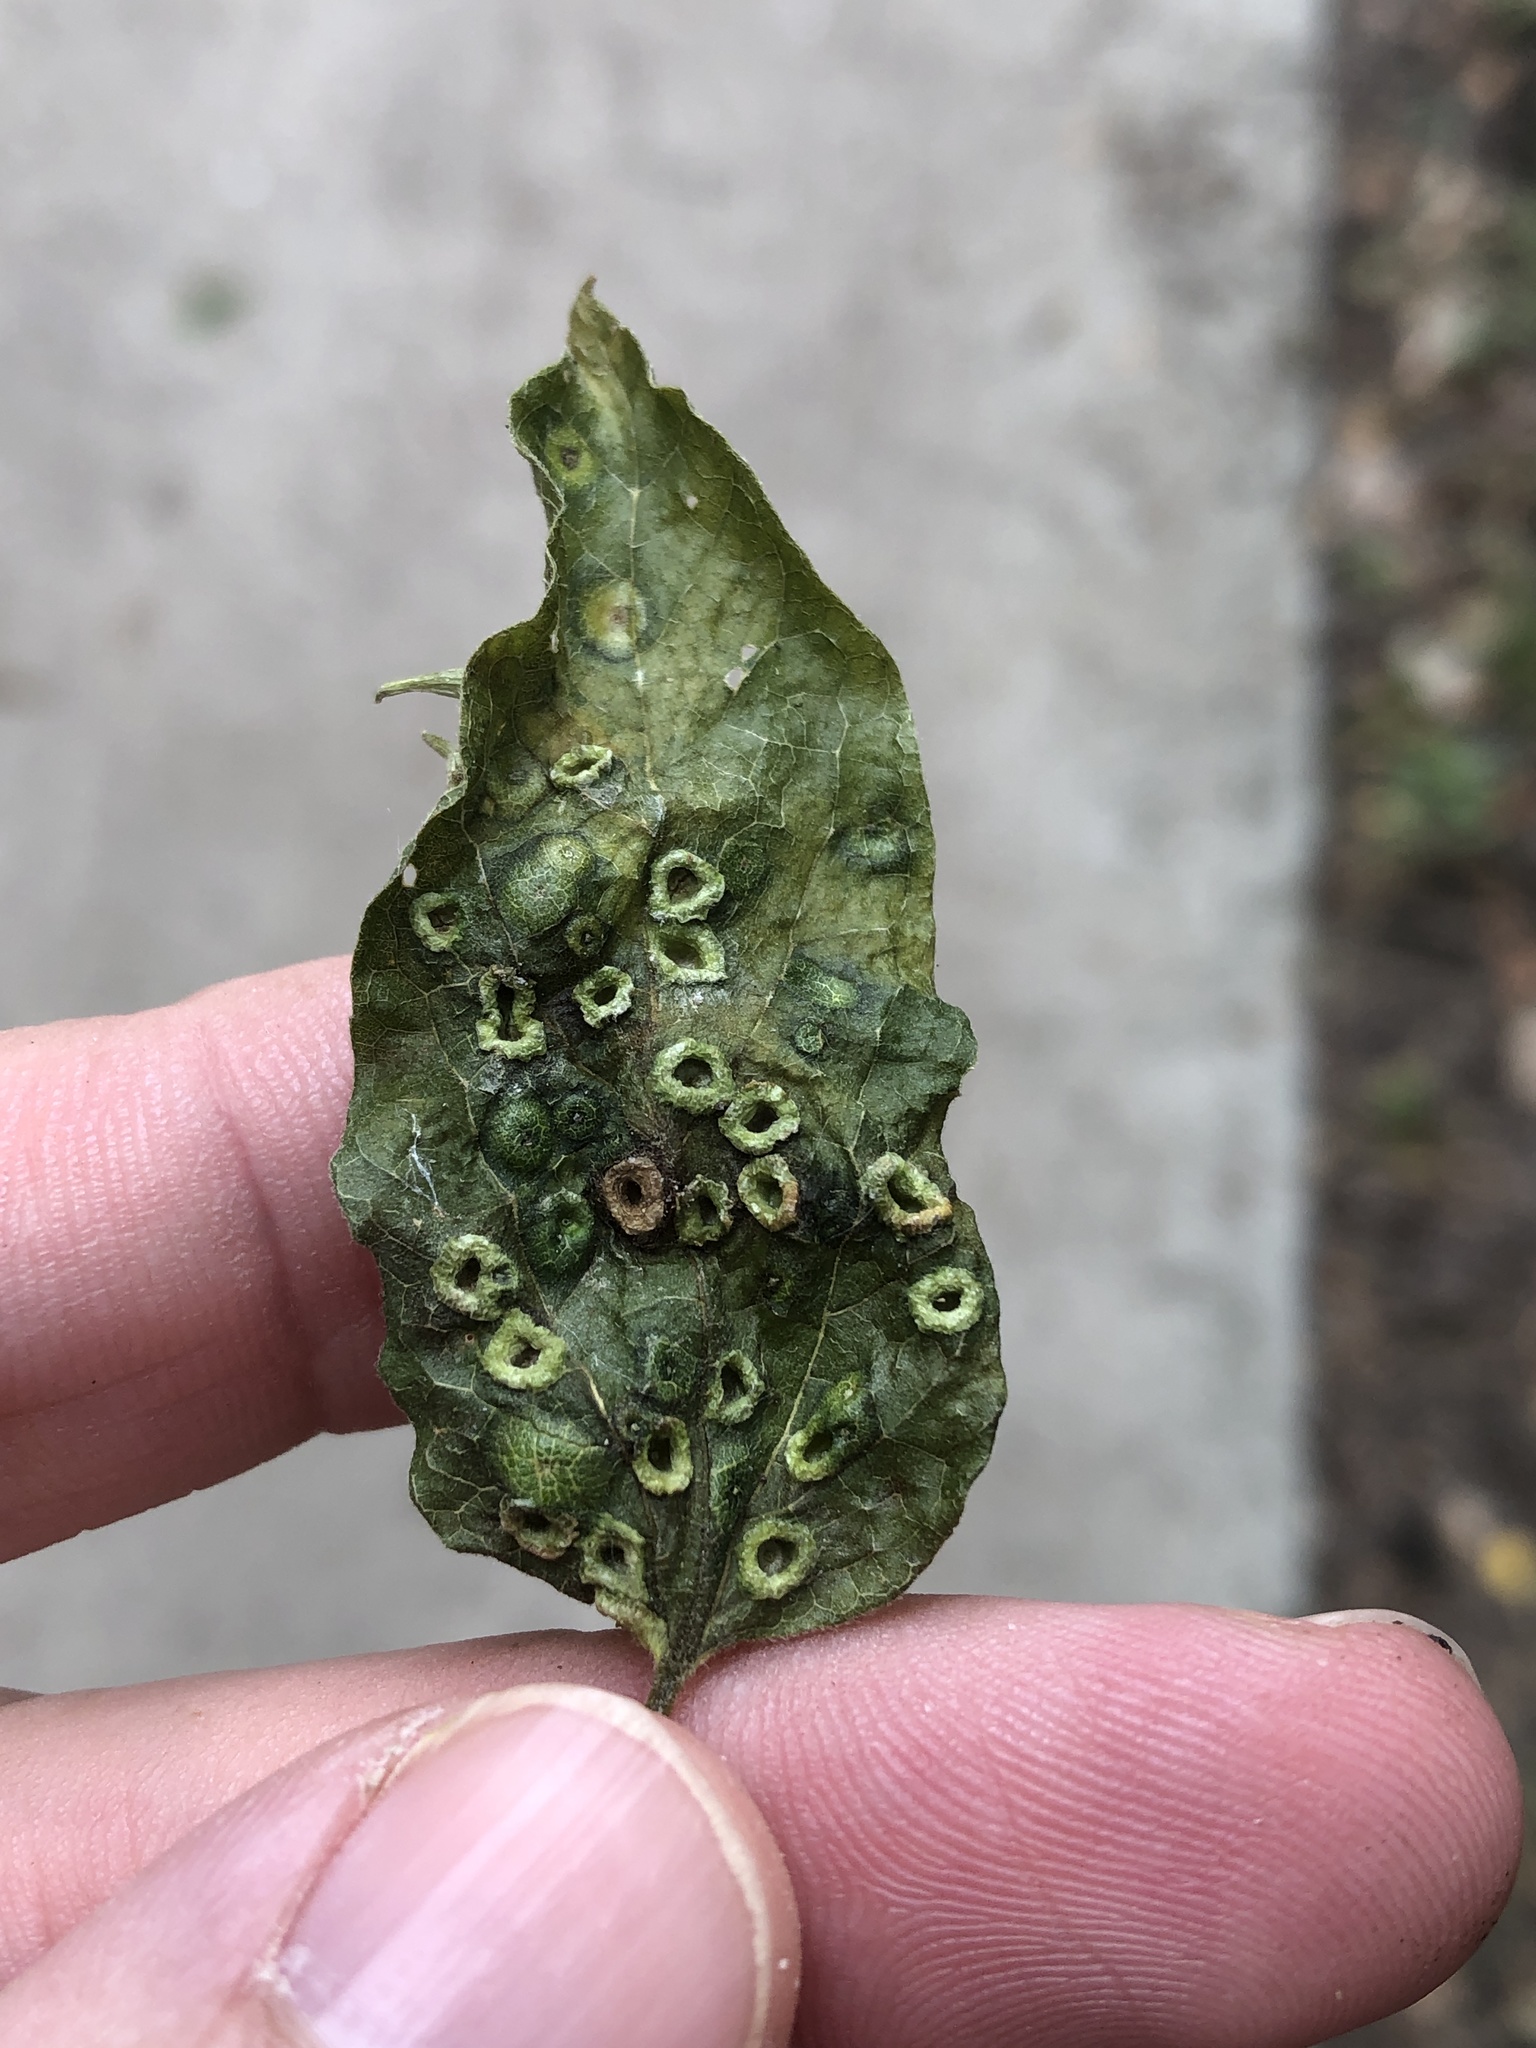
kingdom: Animalia
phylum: Arthropoda
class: Insecta
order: Hemiptera
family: Aphalaridae
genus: Pachypsylla
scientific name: Pachypsylla celtidismamma
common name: Hackberry nipplegall psyllid
